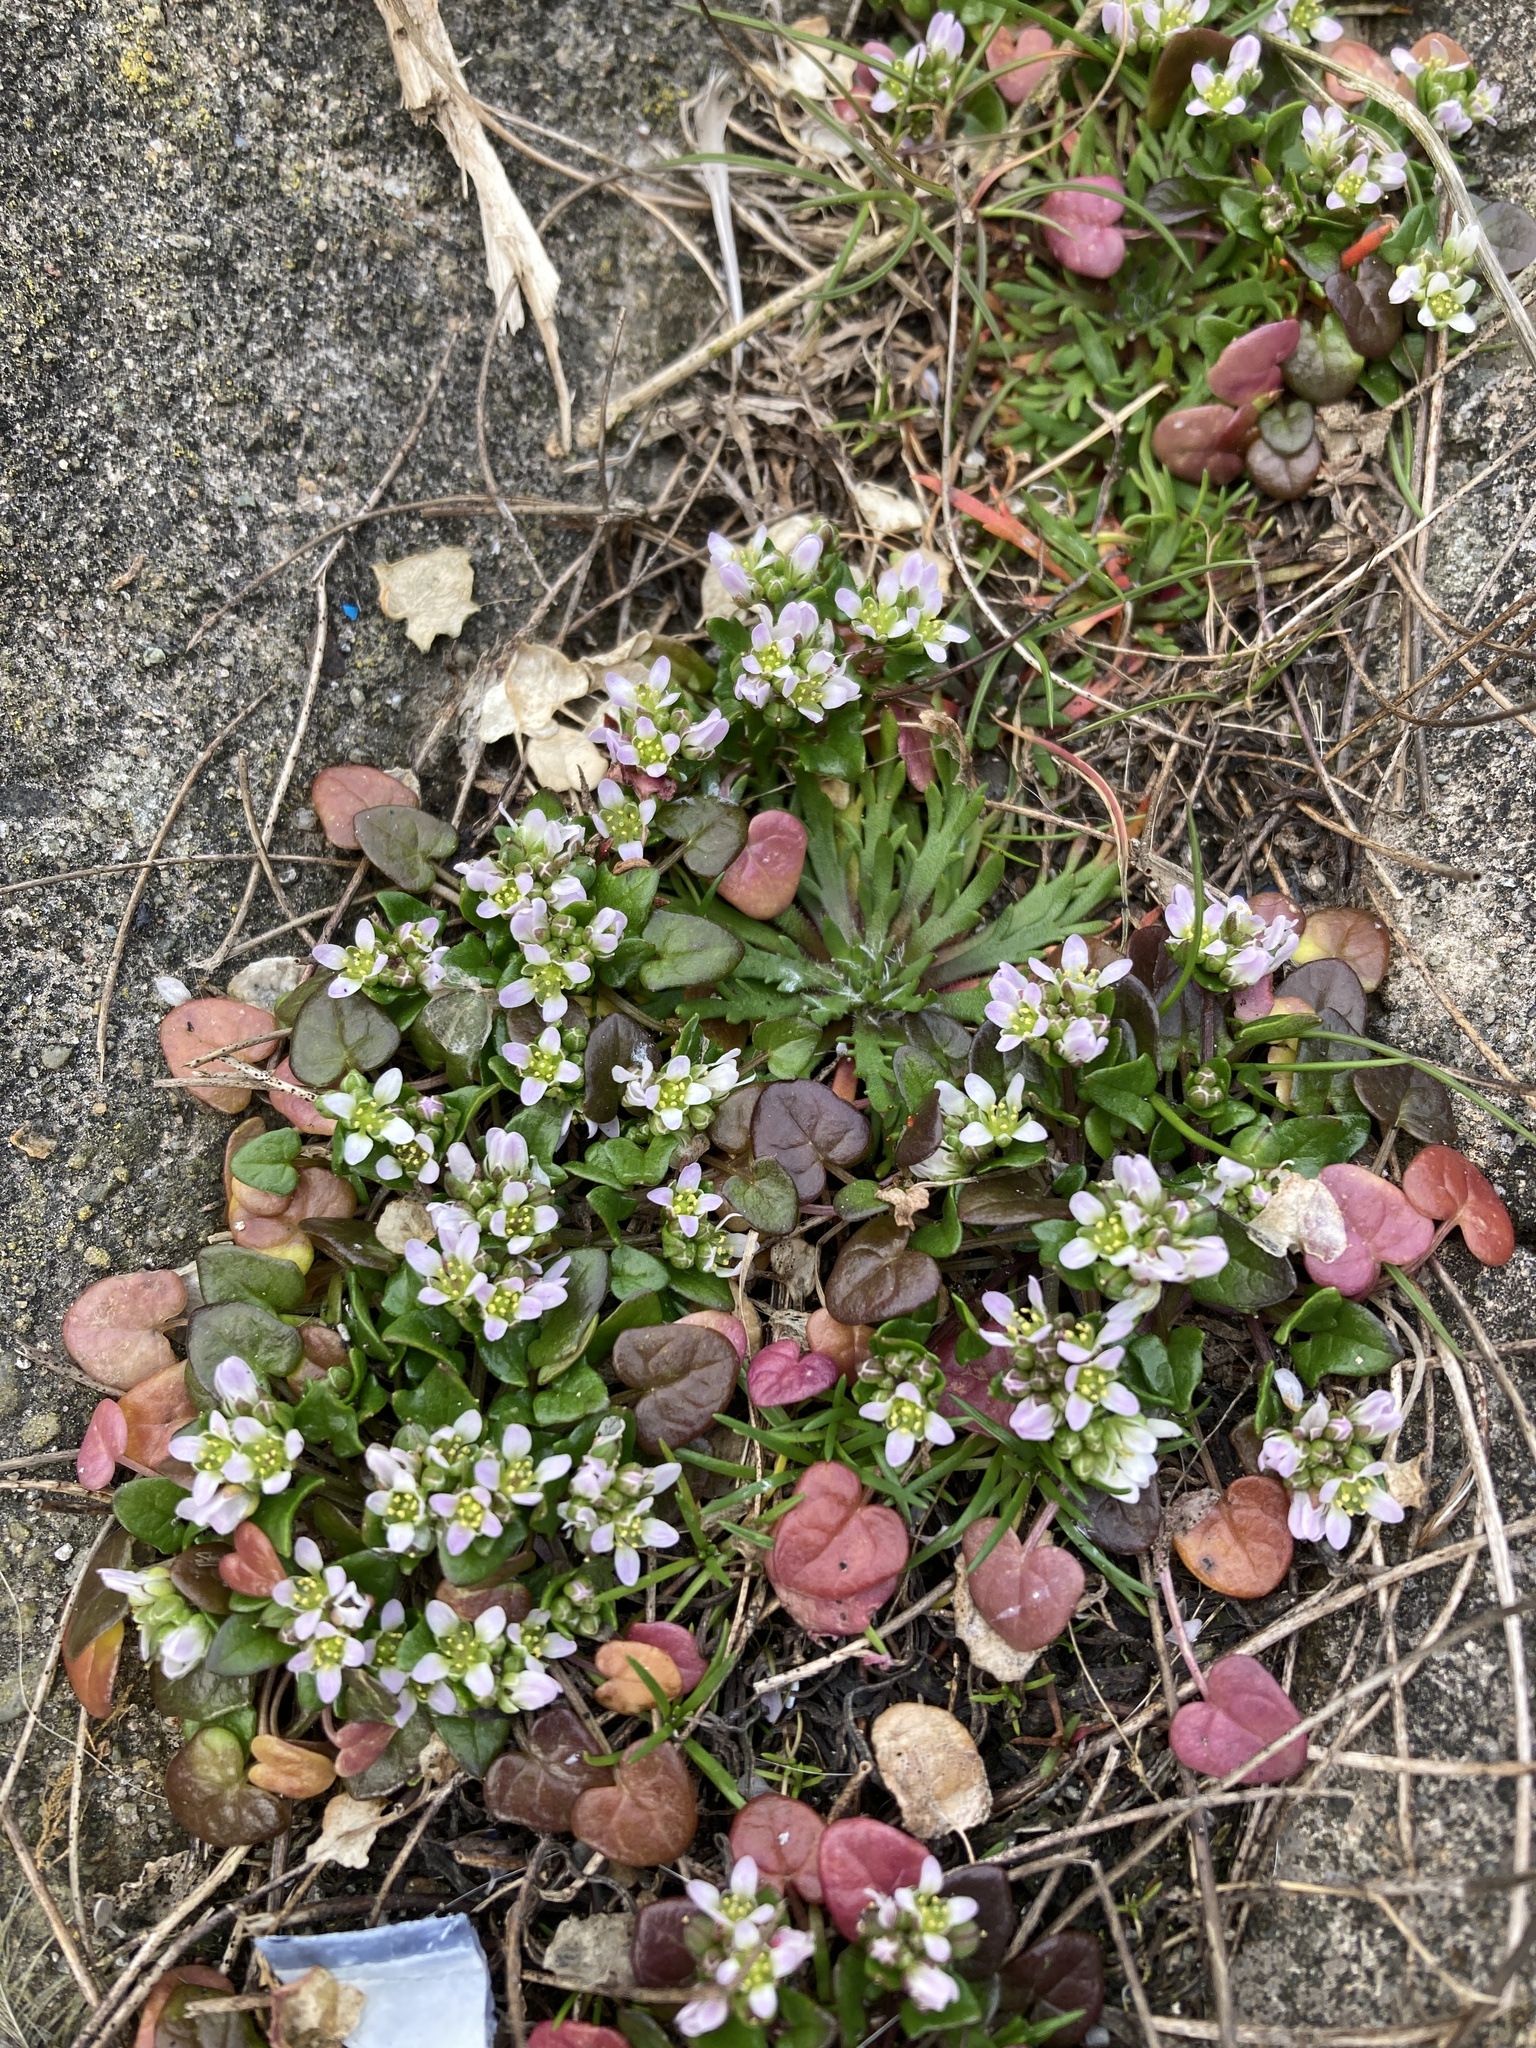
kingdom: Plantae
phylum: Tracheophyta
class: Magnoliopsida
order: Brassicales
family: Brassicaceae
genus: Cochlearia
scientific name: Cochlearia danica
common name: Early scurvygrass
